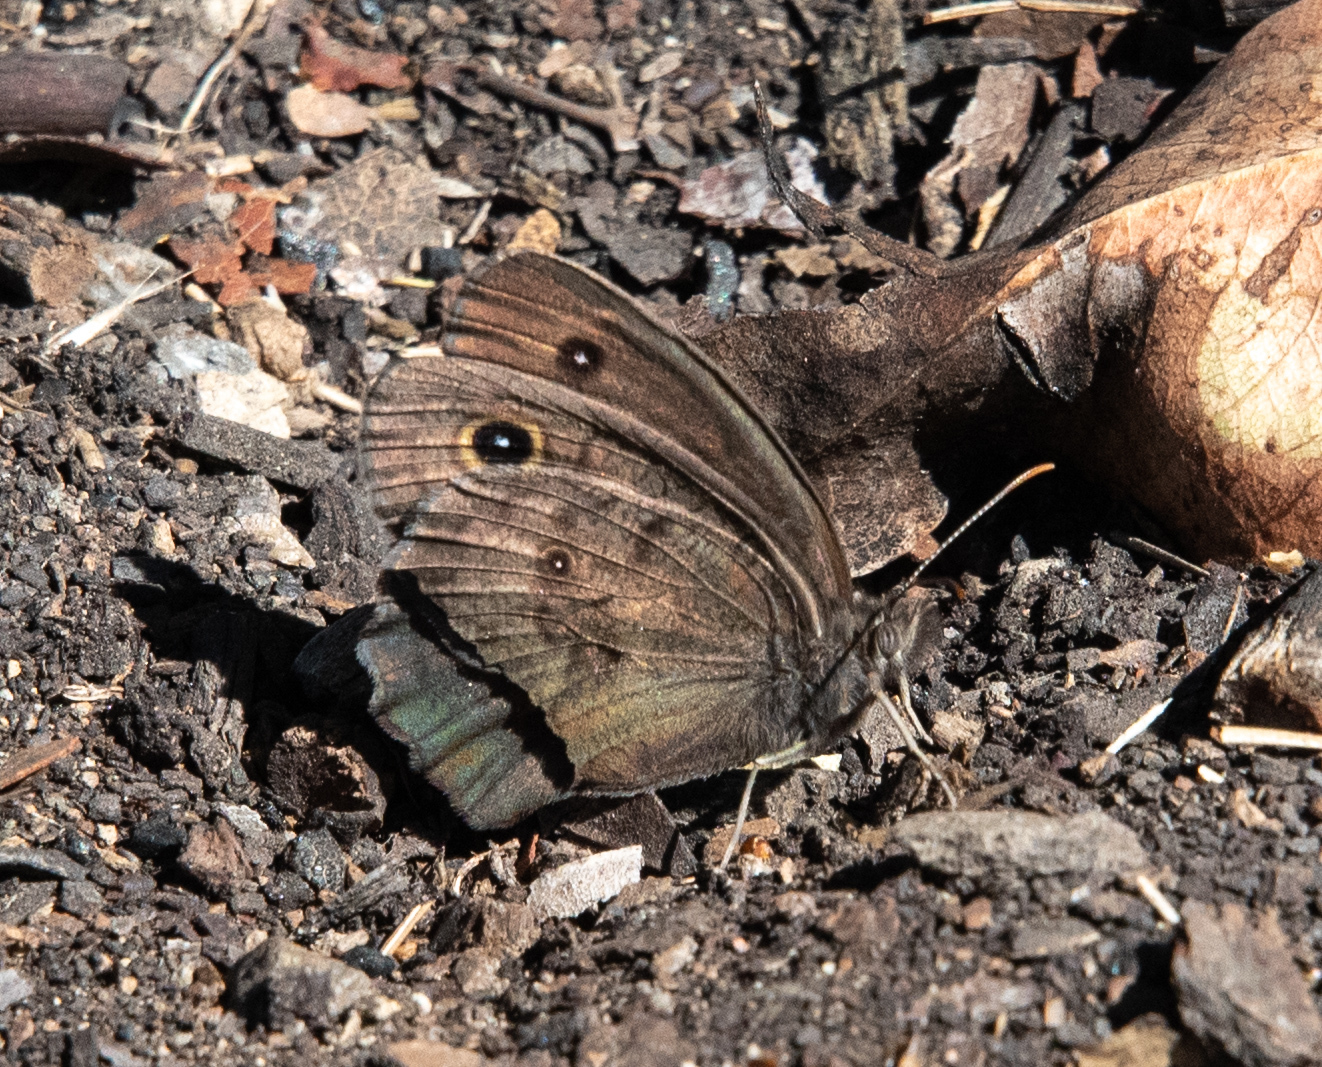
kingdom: Animalia
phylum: Arthropoda
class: Insecta
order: Lepidoptera
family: Nymphalidae
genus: Cercyonis
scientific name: Cercyonis pegala
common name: Common wood-nymph
